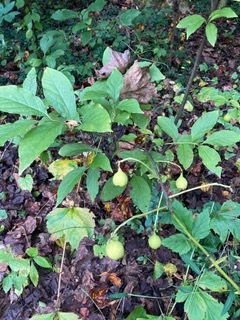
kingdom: Plantae
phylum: Tracheophyta
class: Magnoliopsida
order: Santalales
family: Cervantesiaceae
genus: Pyrularia
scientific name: Pyrularia pubera
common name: Oilnut
